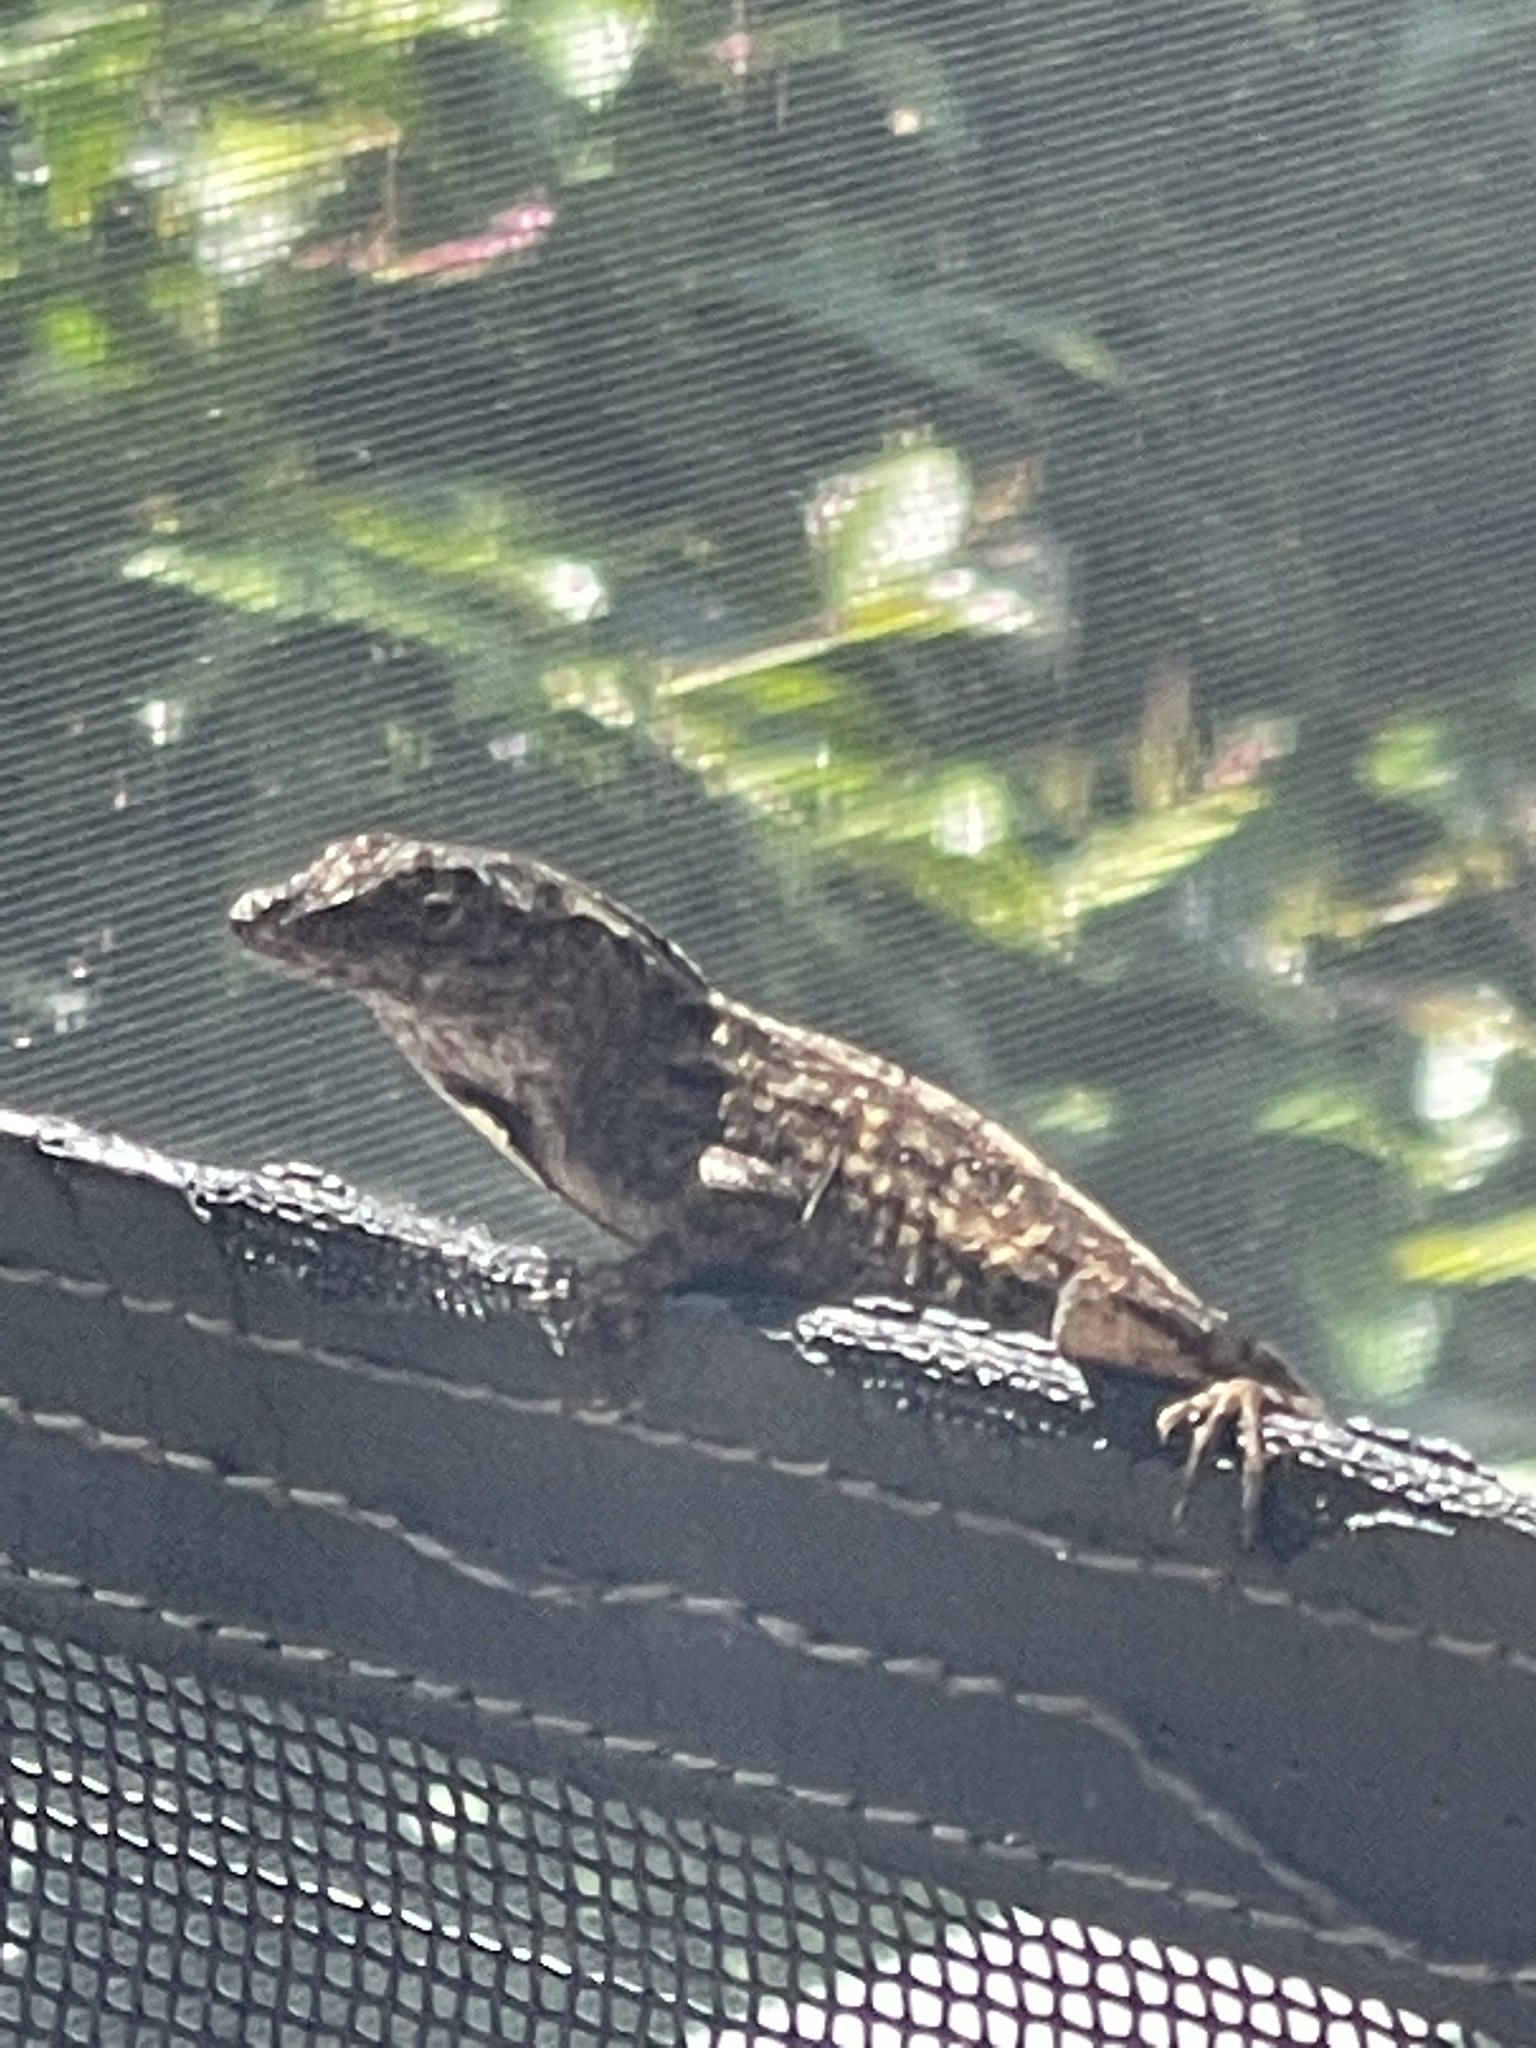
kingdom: Animalia
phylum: Chordata
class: Squamata
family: Dactyloidae
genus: Anolis
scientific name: Anolis sagrei
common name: Brown anole
